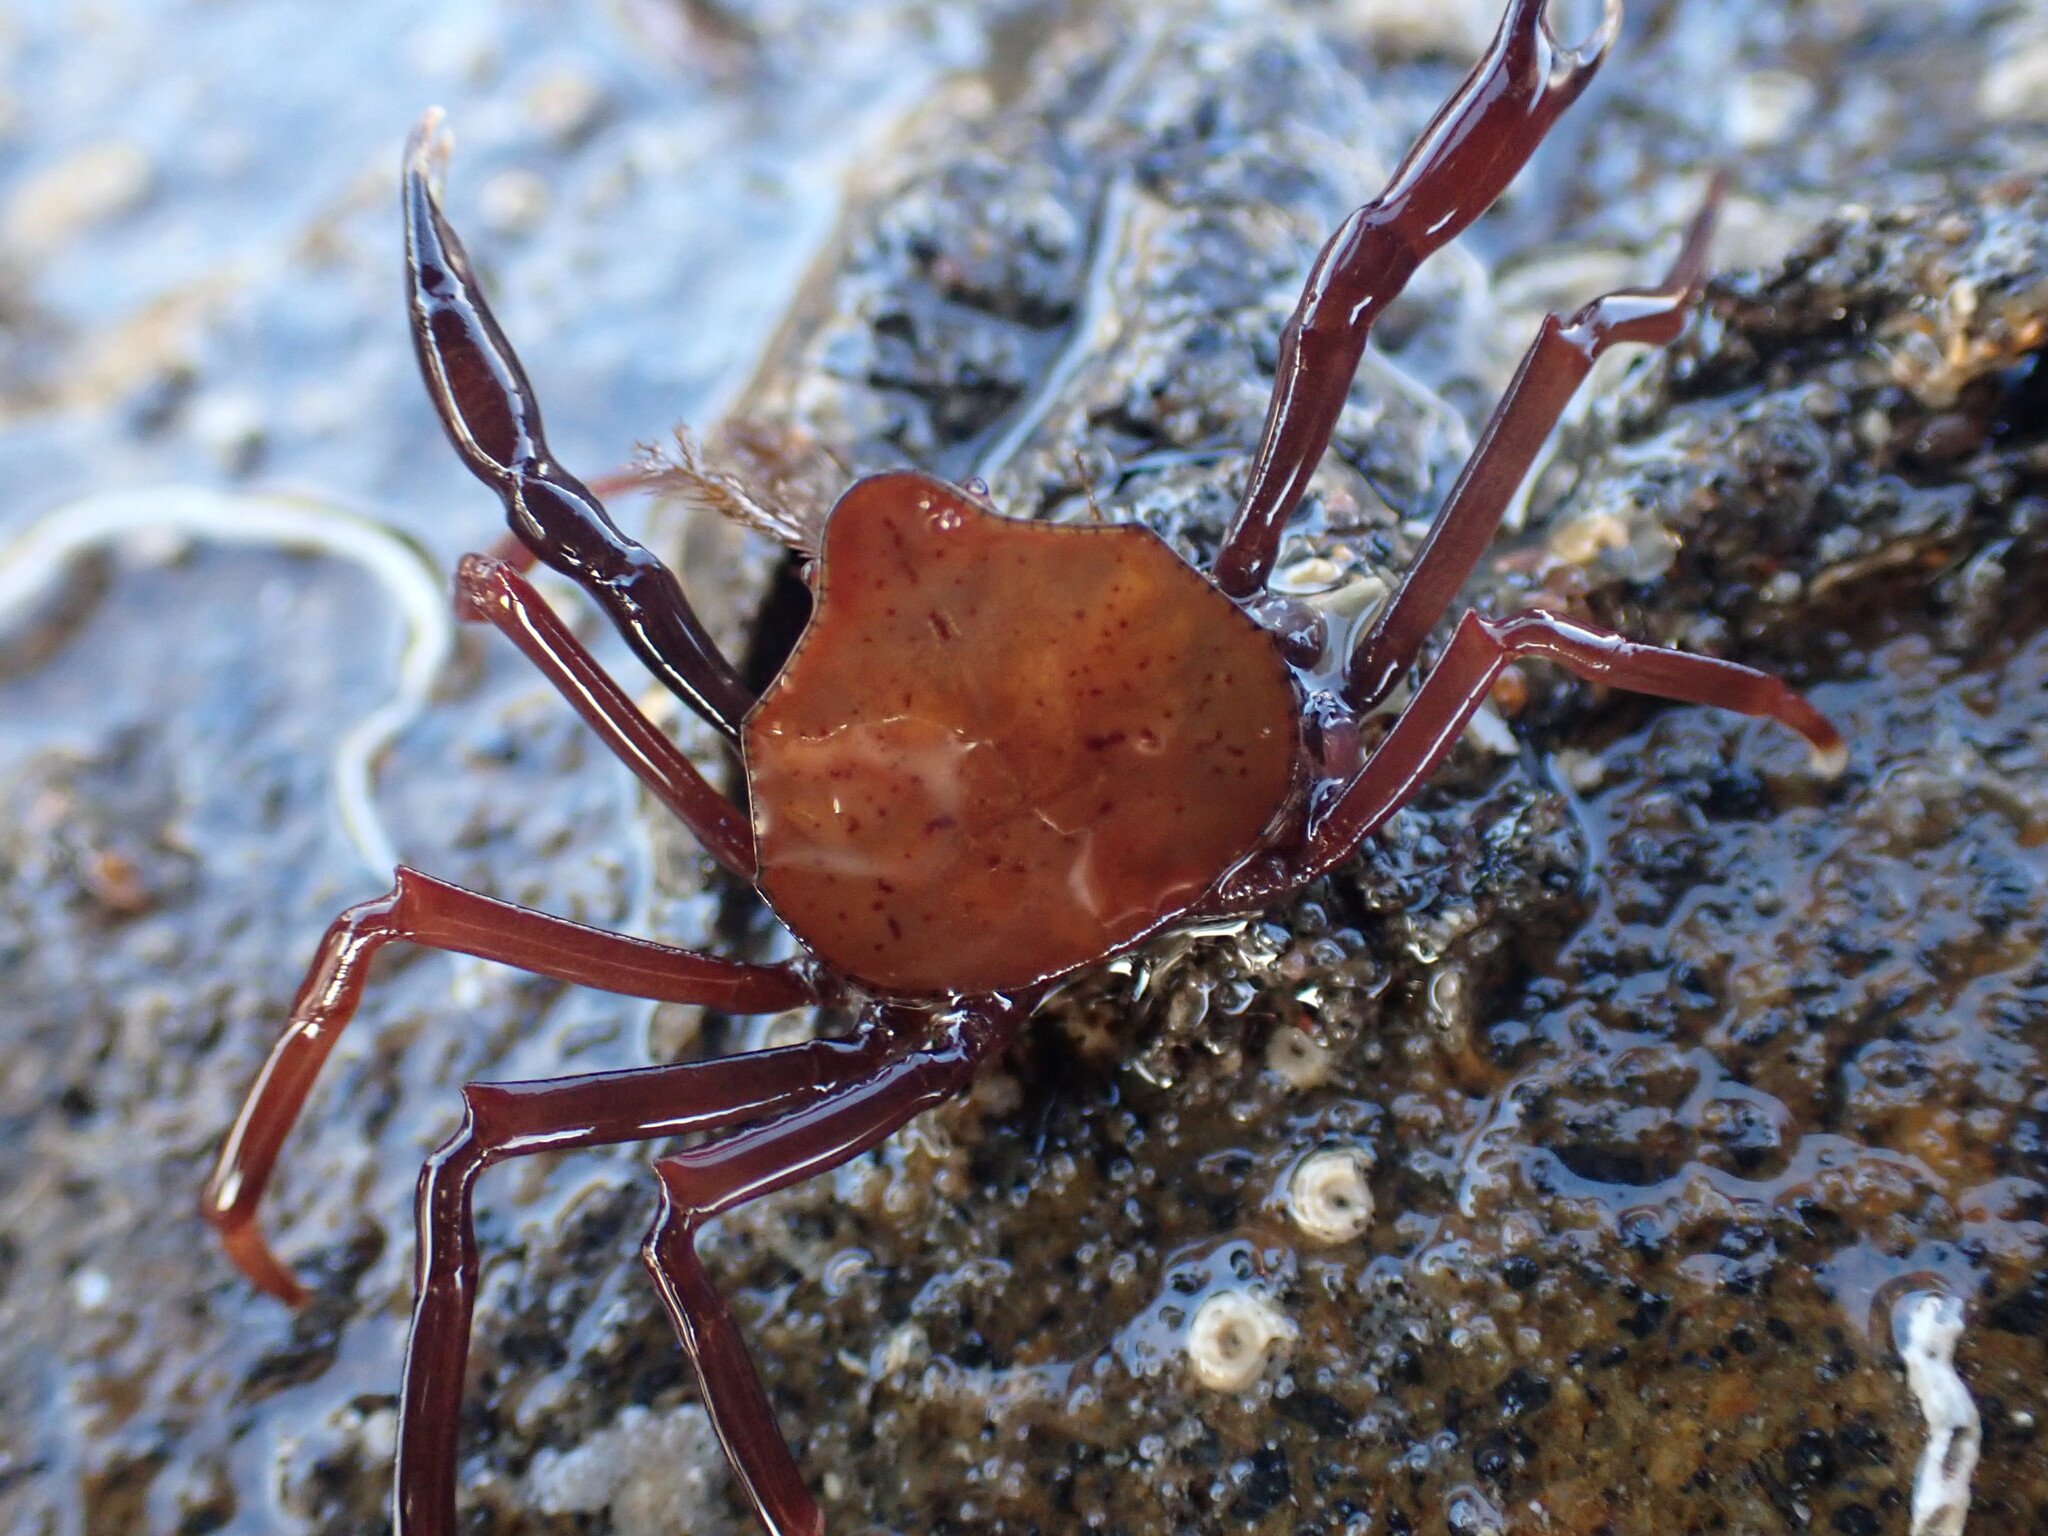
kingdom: Animalia
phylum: Arthropoda
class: Malacostraca
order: Decapoda
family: Hymenosomatidae
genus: Elamena
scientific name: Elamena producta
